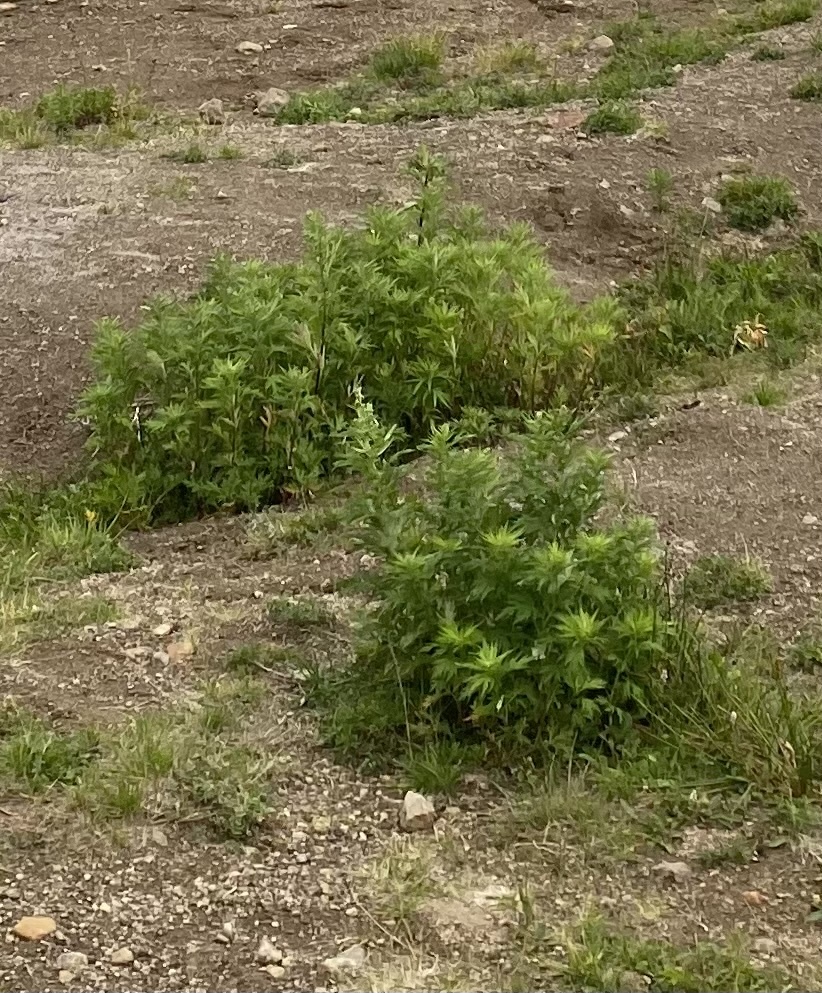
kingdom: Plantae
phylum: Tracheophyta
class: Magnoliopsida
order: Asterales
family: Asteraceae
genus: Artemisia
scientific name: Artemisia vulgaris
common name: Mugwort
